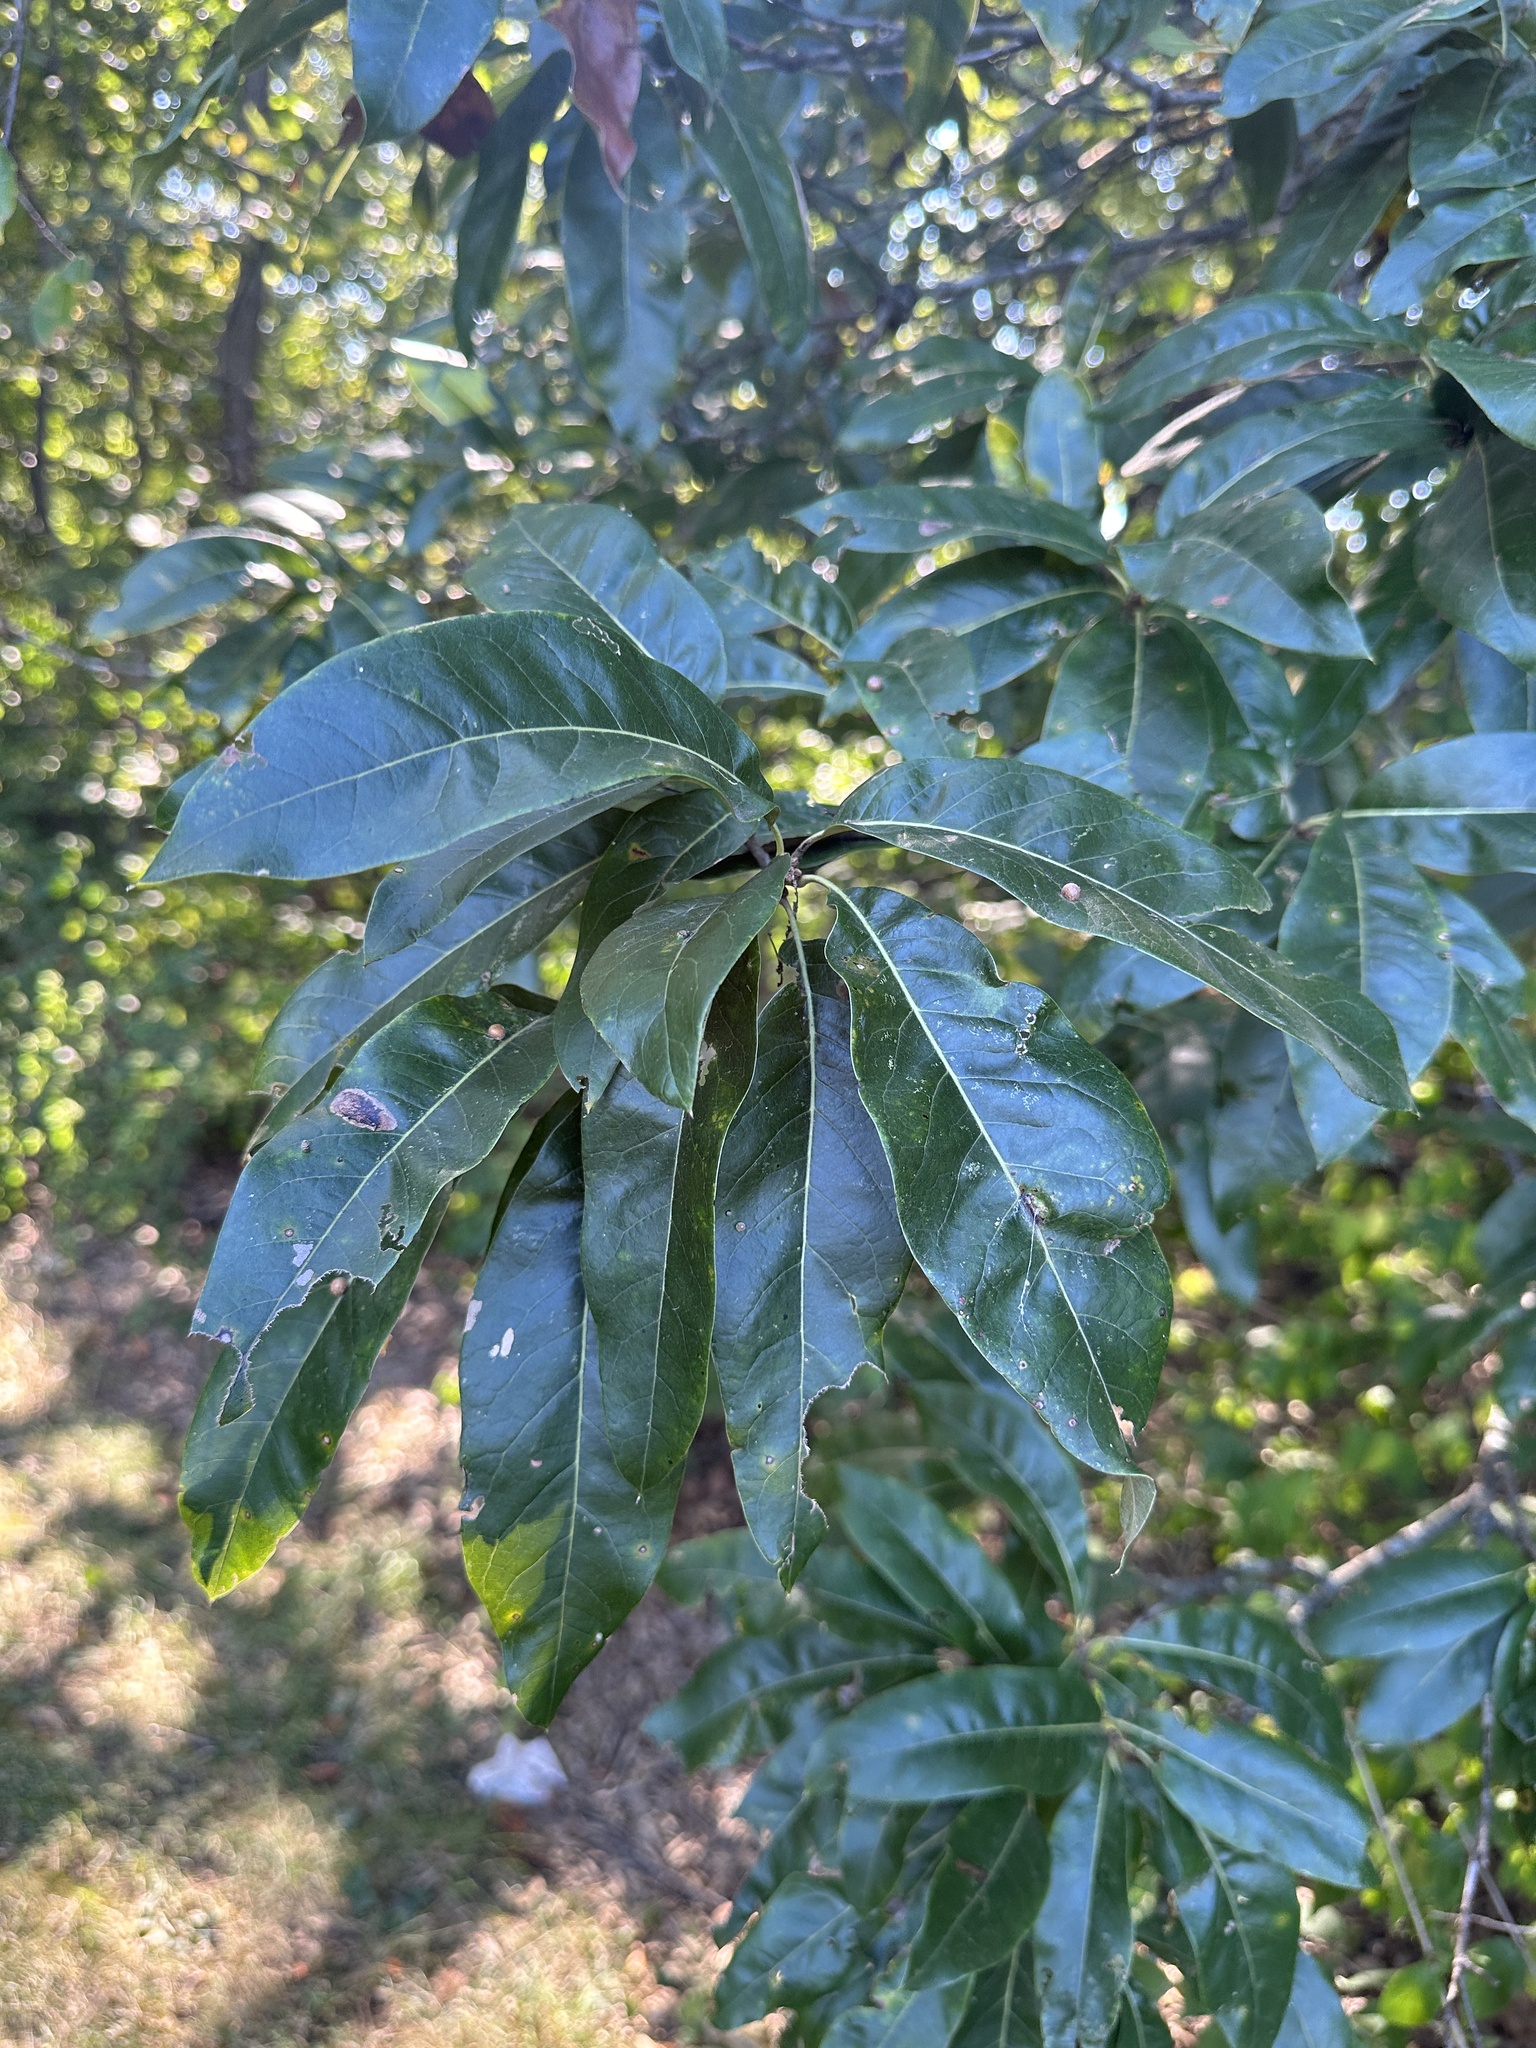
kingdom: Plantae
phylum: Tracheophyta
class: Magnoliopsida
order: Fagales
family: Fagaceae
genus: Quercus
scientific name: Quercus imbricaria
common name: Shingle oak
